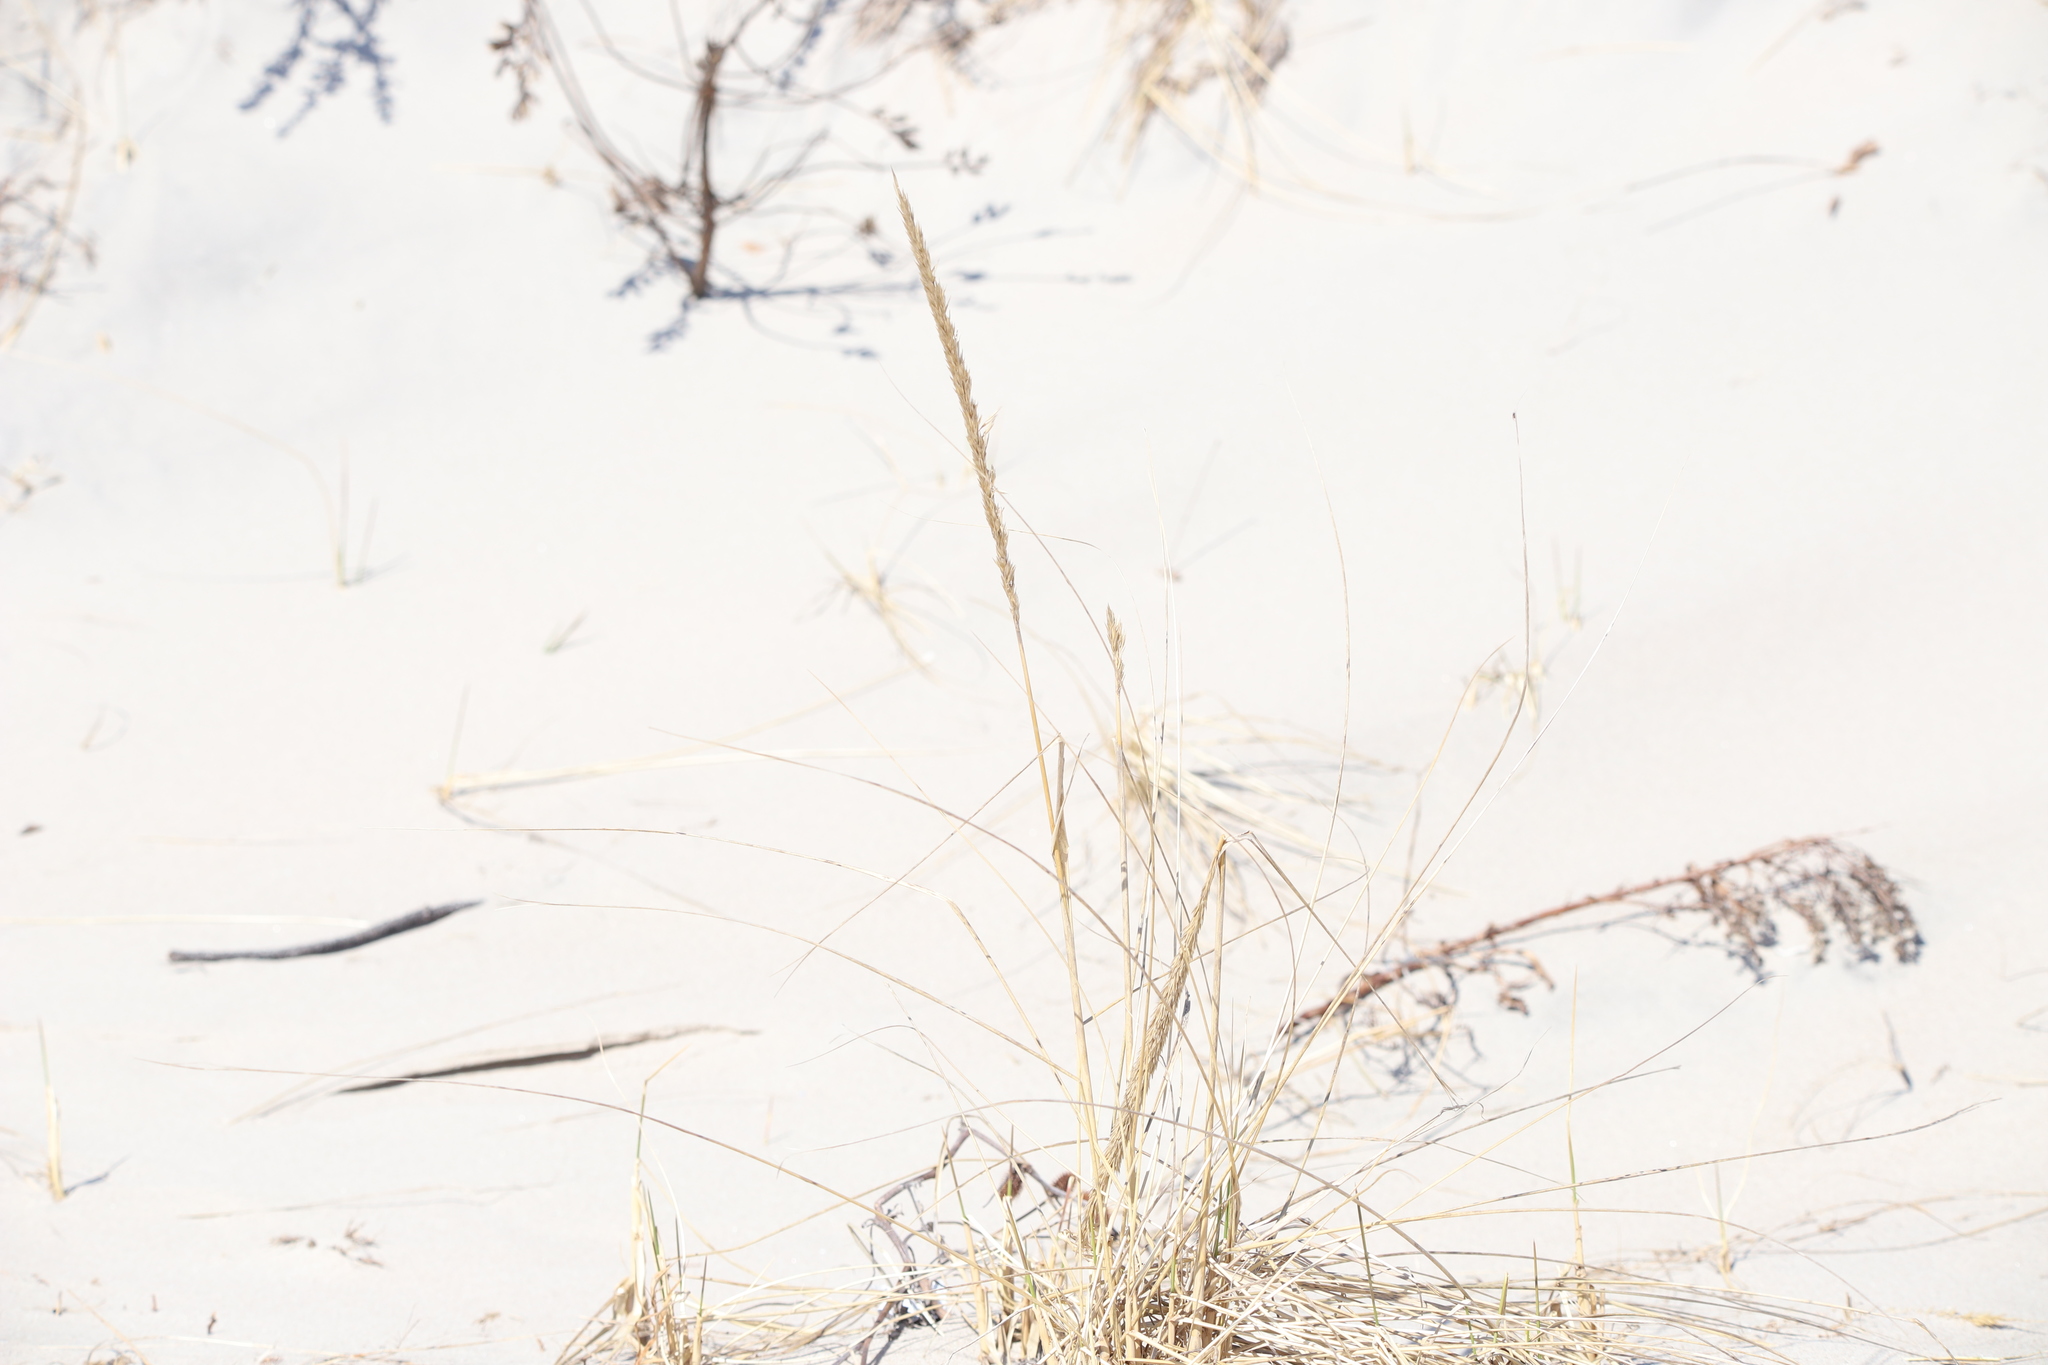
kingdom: Plantae
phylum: Tracheophyta
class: Liliopsida
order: Poales
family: Poaceae
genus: Calamagrostis
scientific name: Calamagrostis breviligulata
